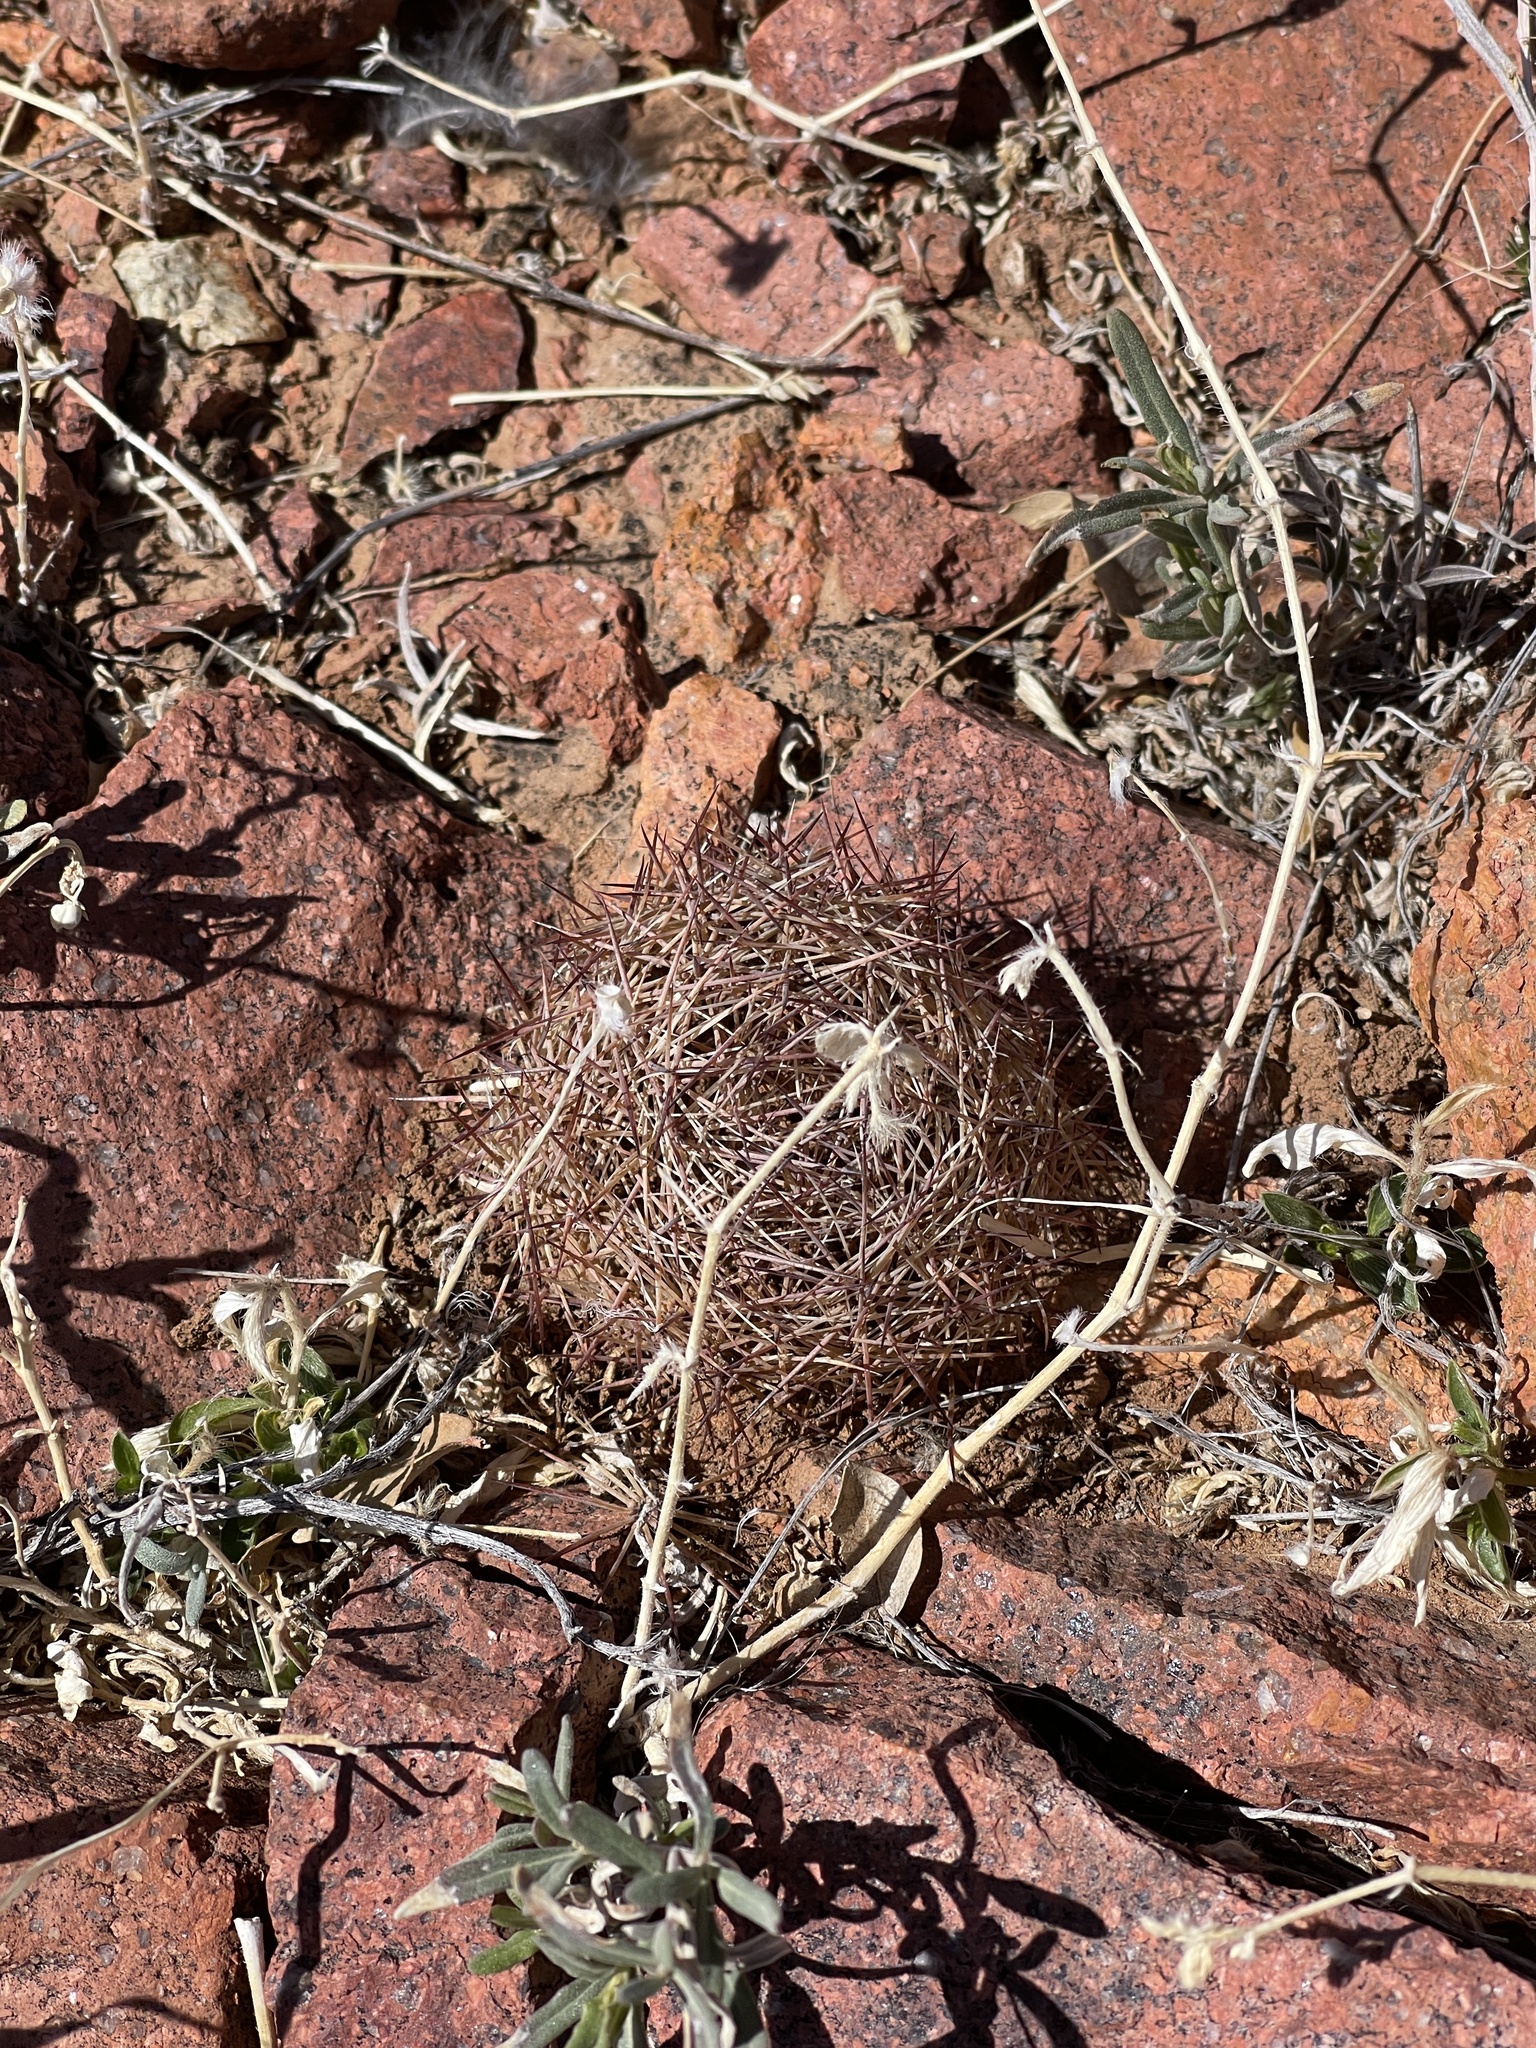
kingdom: Plantae
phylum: Tracheophyta
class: Magnoliopsida
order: Caryophyllales
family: Cactaceae
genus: Sclerocactus
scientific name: Sclerocactus intertextus
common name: White fish-hook cactus
